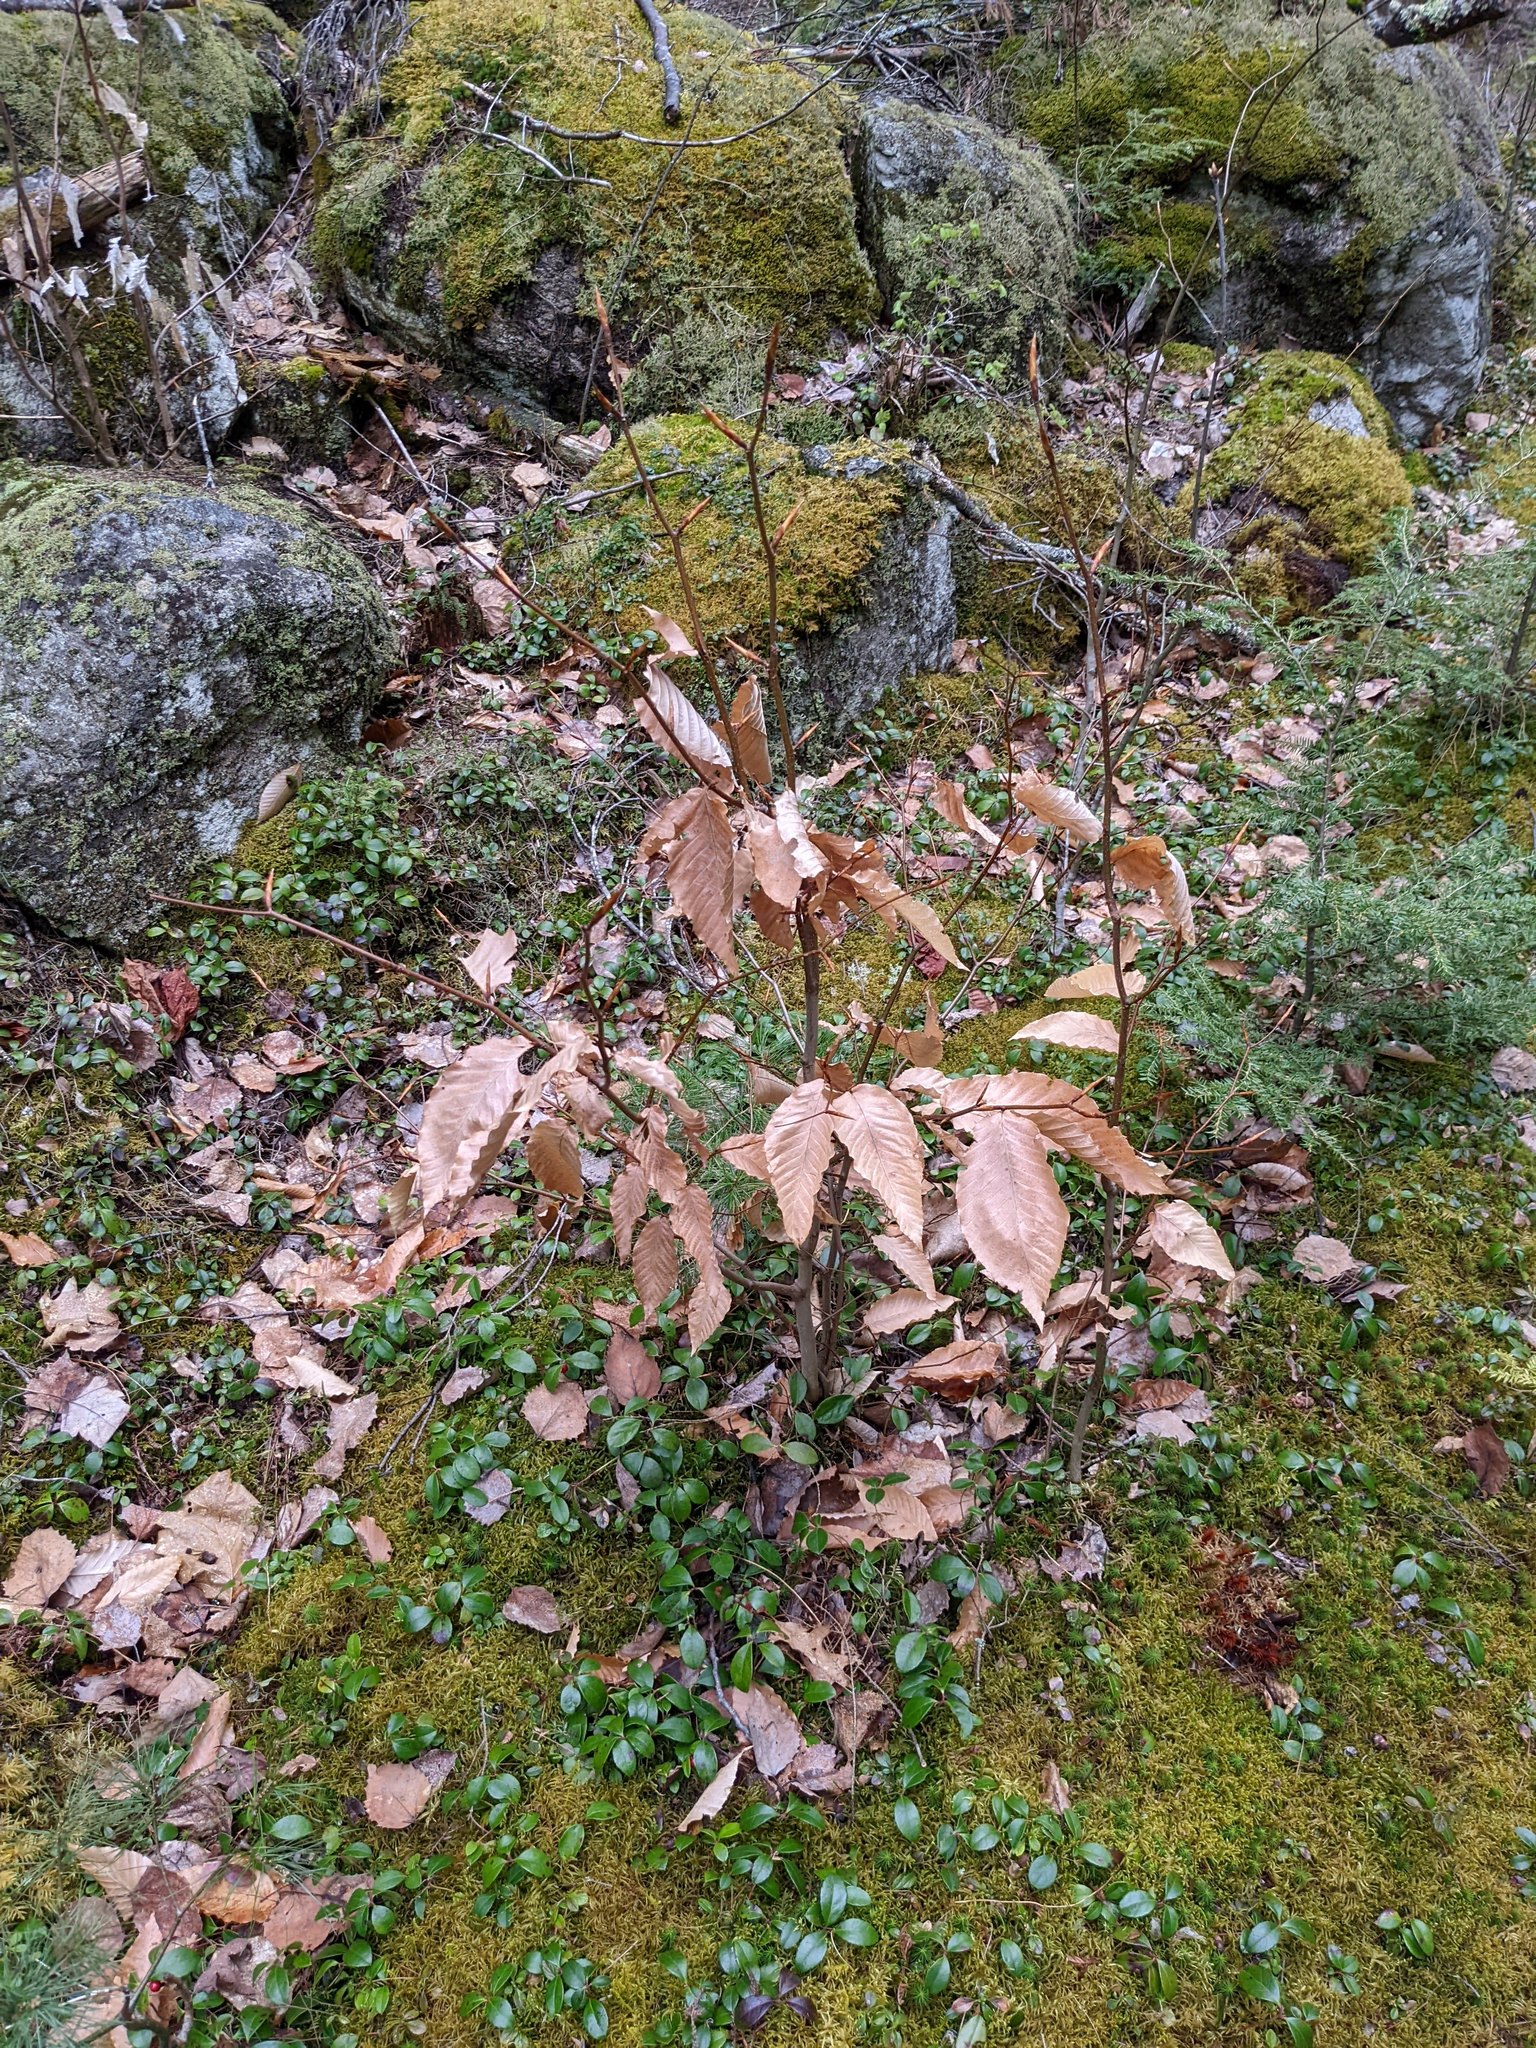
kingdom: Plantae
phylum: Tracheophyta
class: Magnoliopsida
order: Fagales
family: Fagaceae
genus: Fagus
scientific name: Fagus grandifolia
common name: American beech
